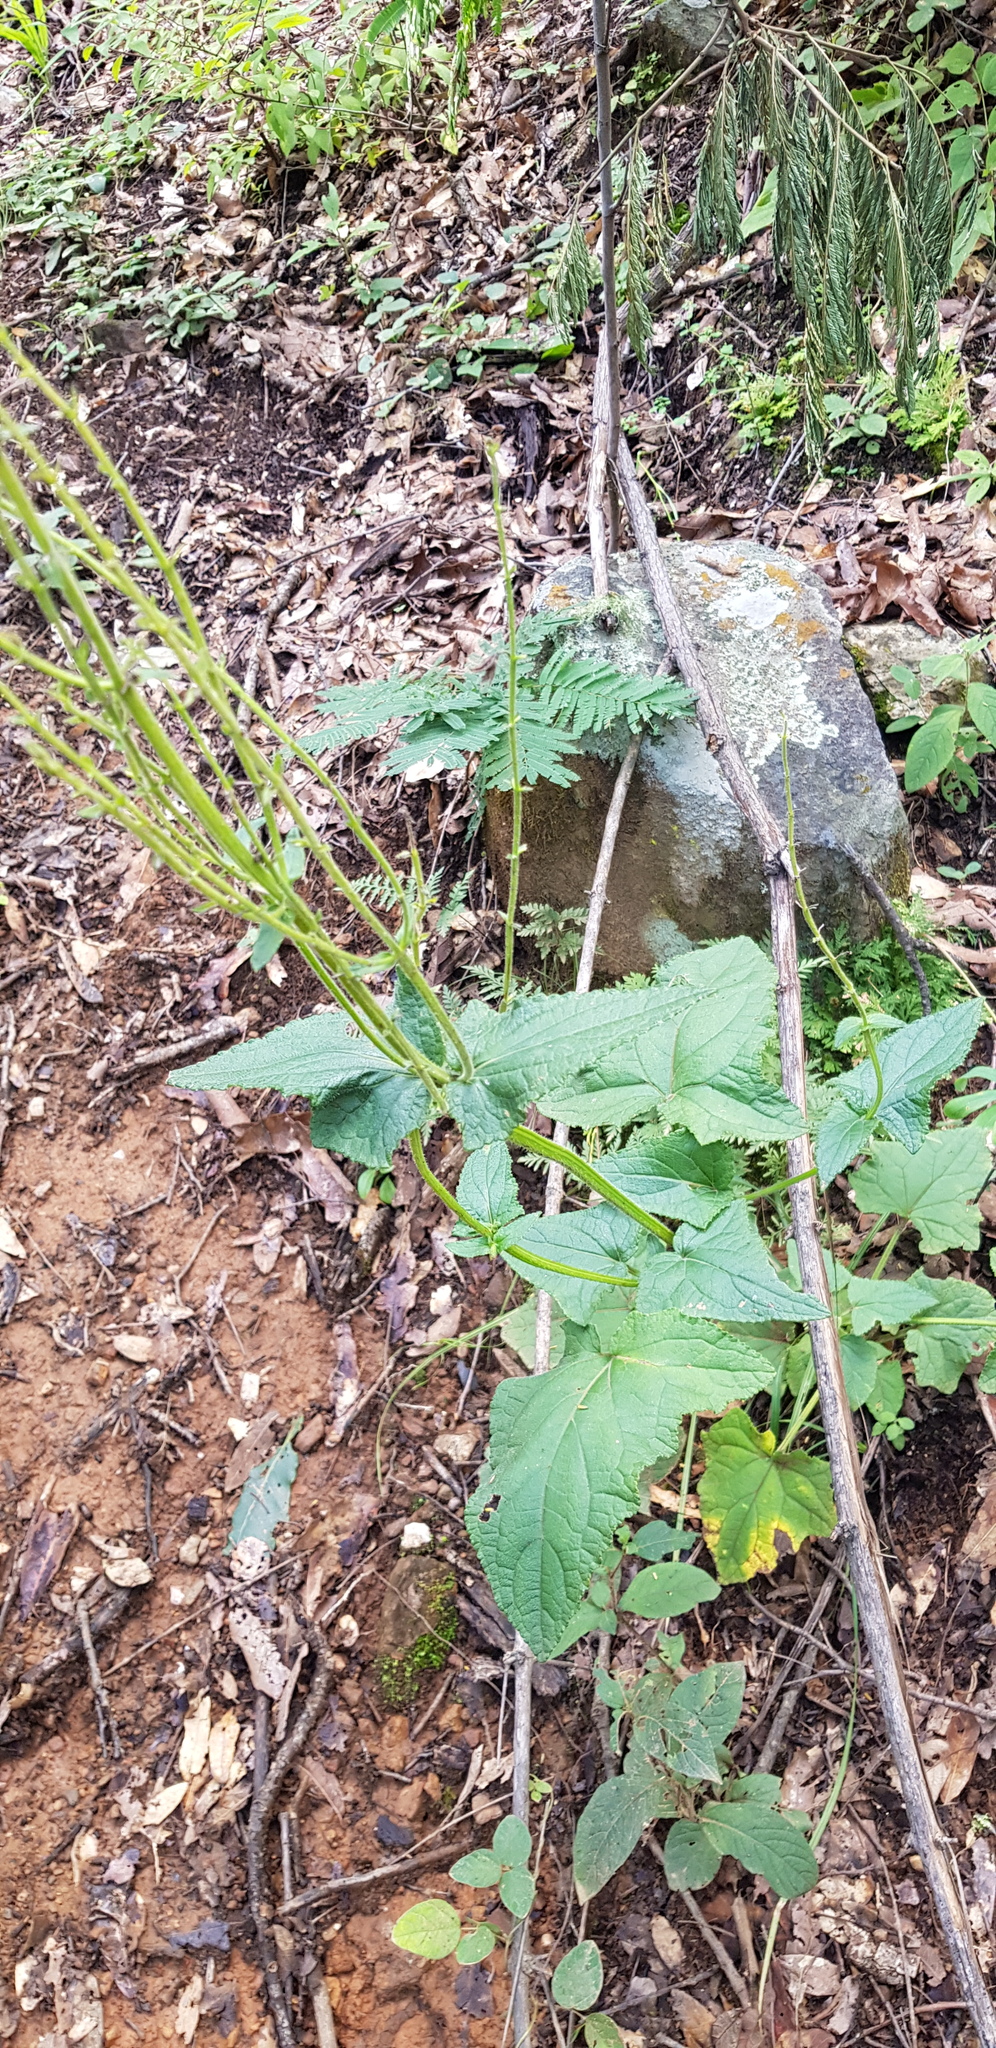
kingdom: Plantae
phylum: Tracheophyta
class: Magnoliopsida
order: Lamiales
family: Lamiaceae
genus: Salvia
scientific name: Salvia patens
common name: Blue sage
